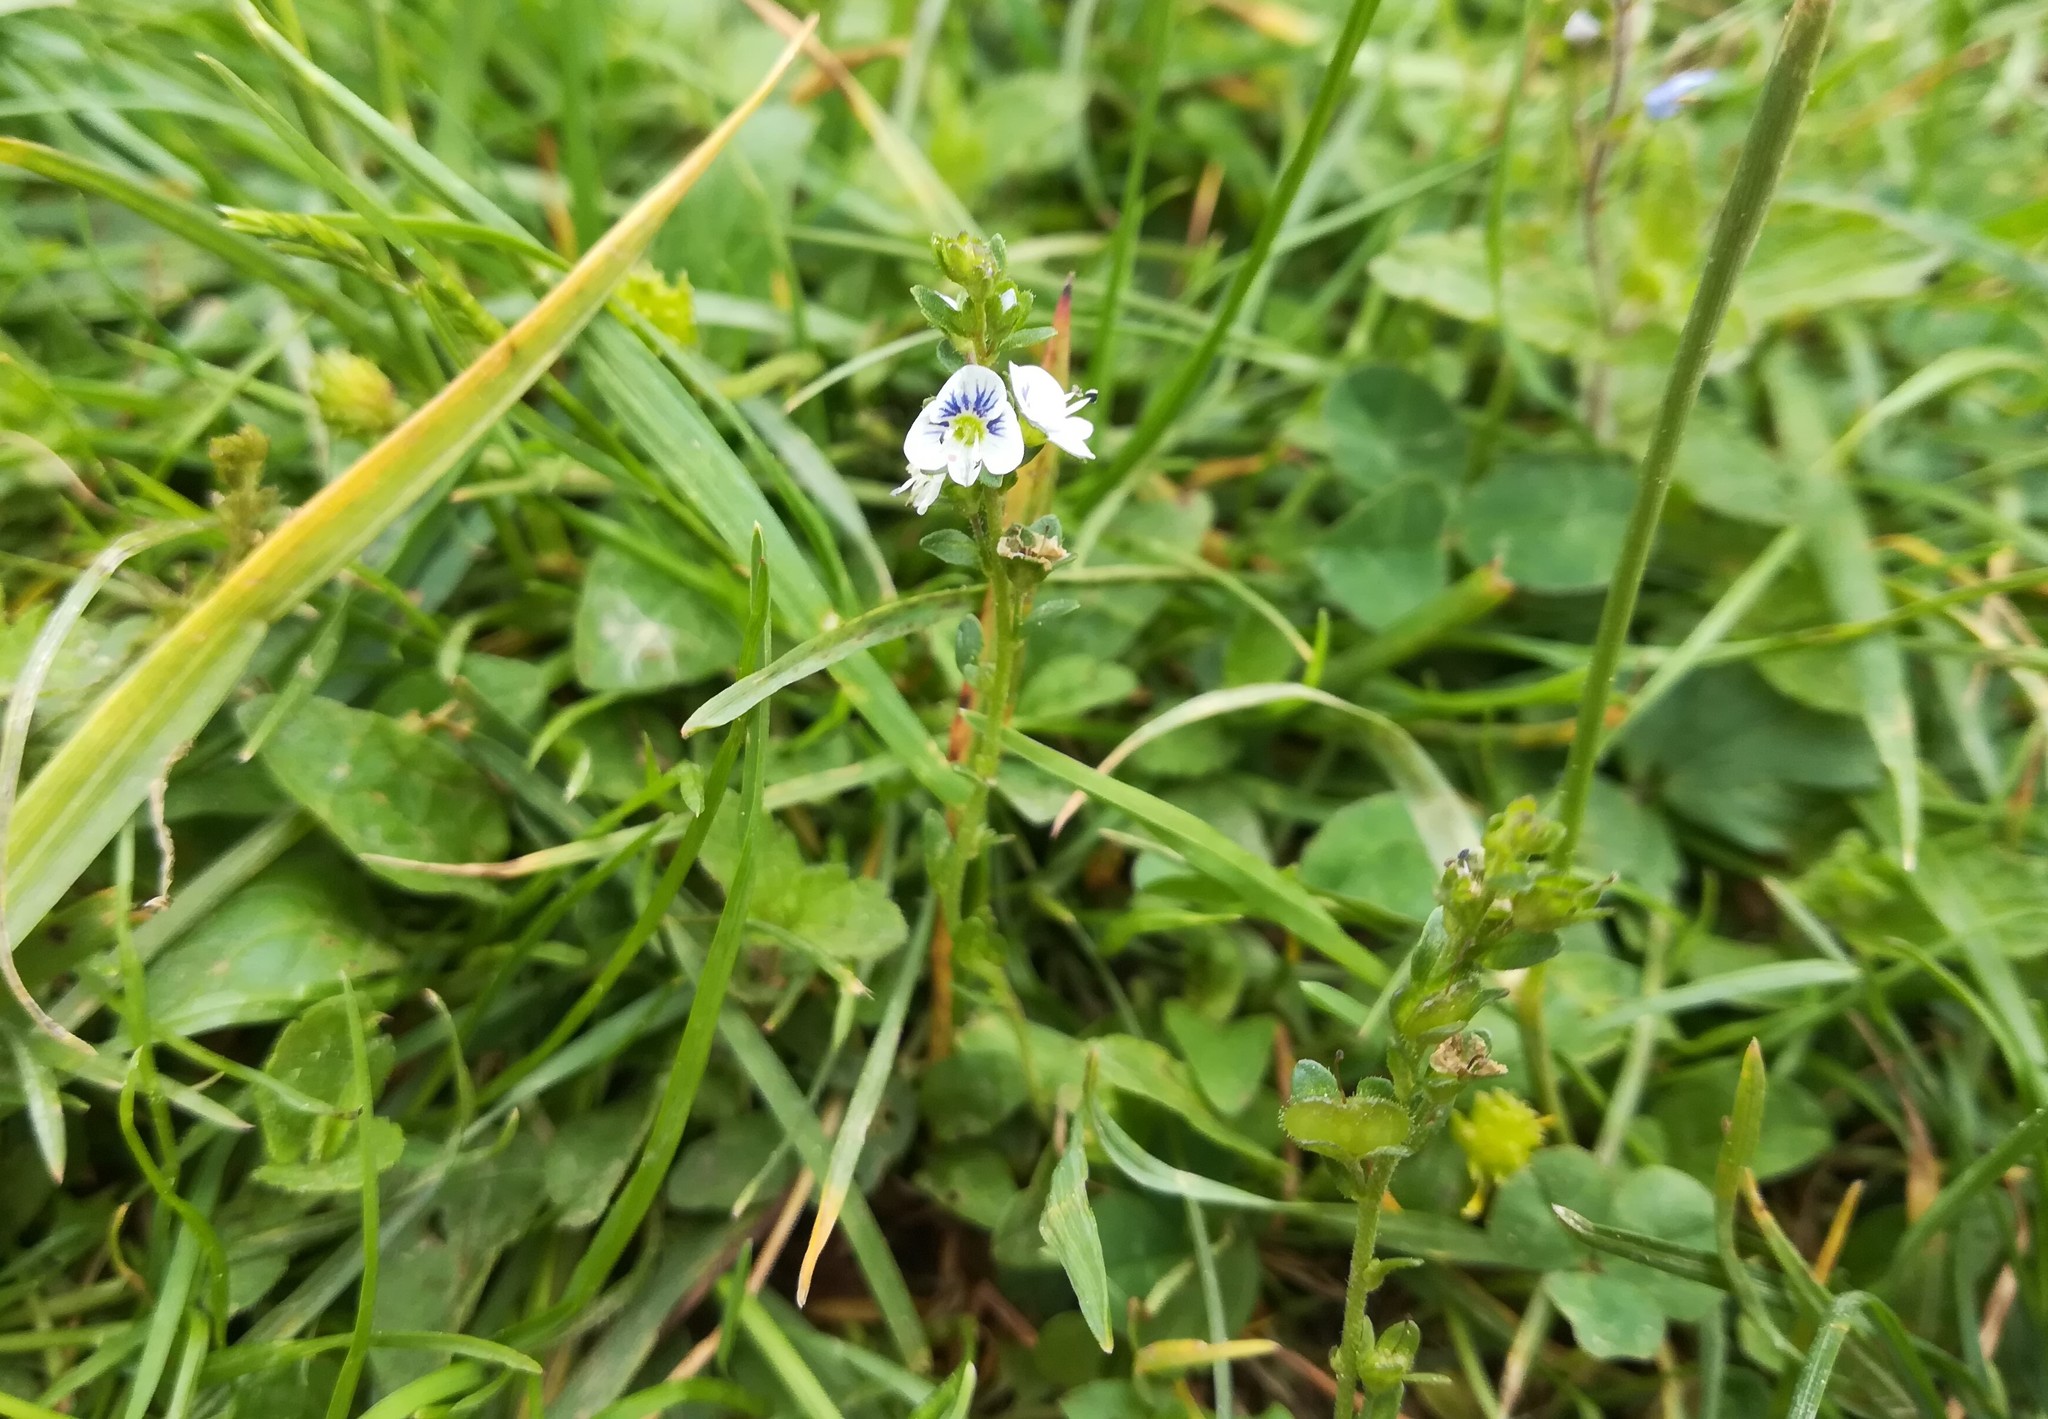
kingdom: Plantae
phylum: Tracheophyta
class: Magnoliopsida
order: Lamiales
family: Plantaginaceae
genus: Veronica
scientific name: Veronica serpyllifolia
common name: Thyme-leaved speedwell
